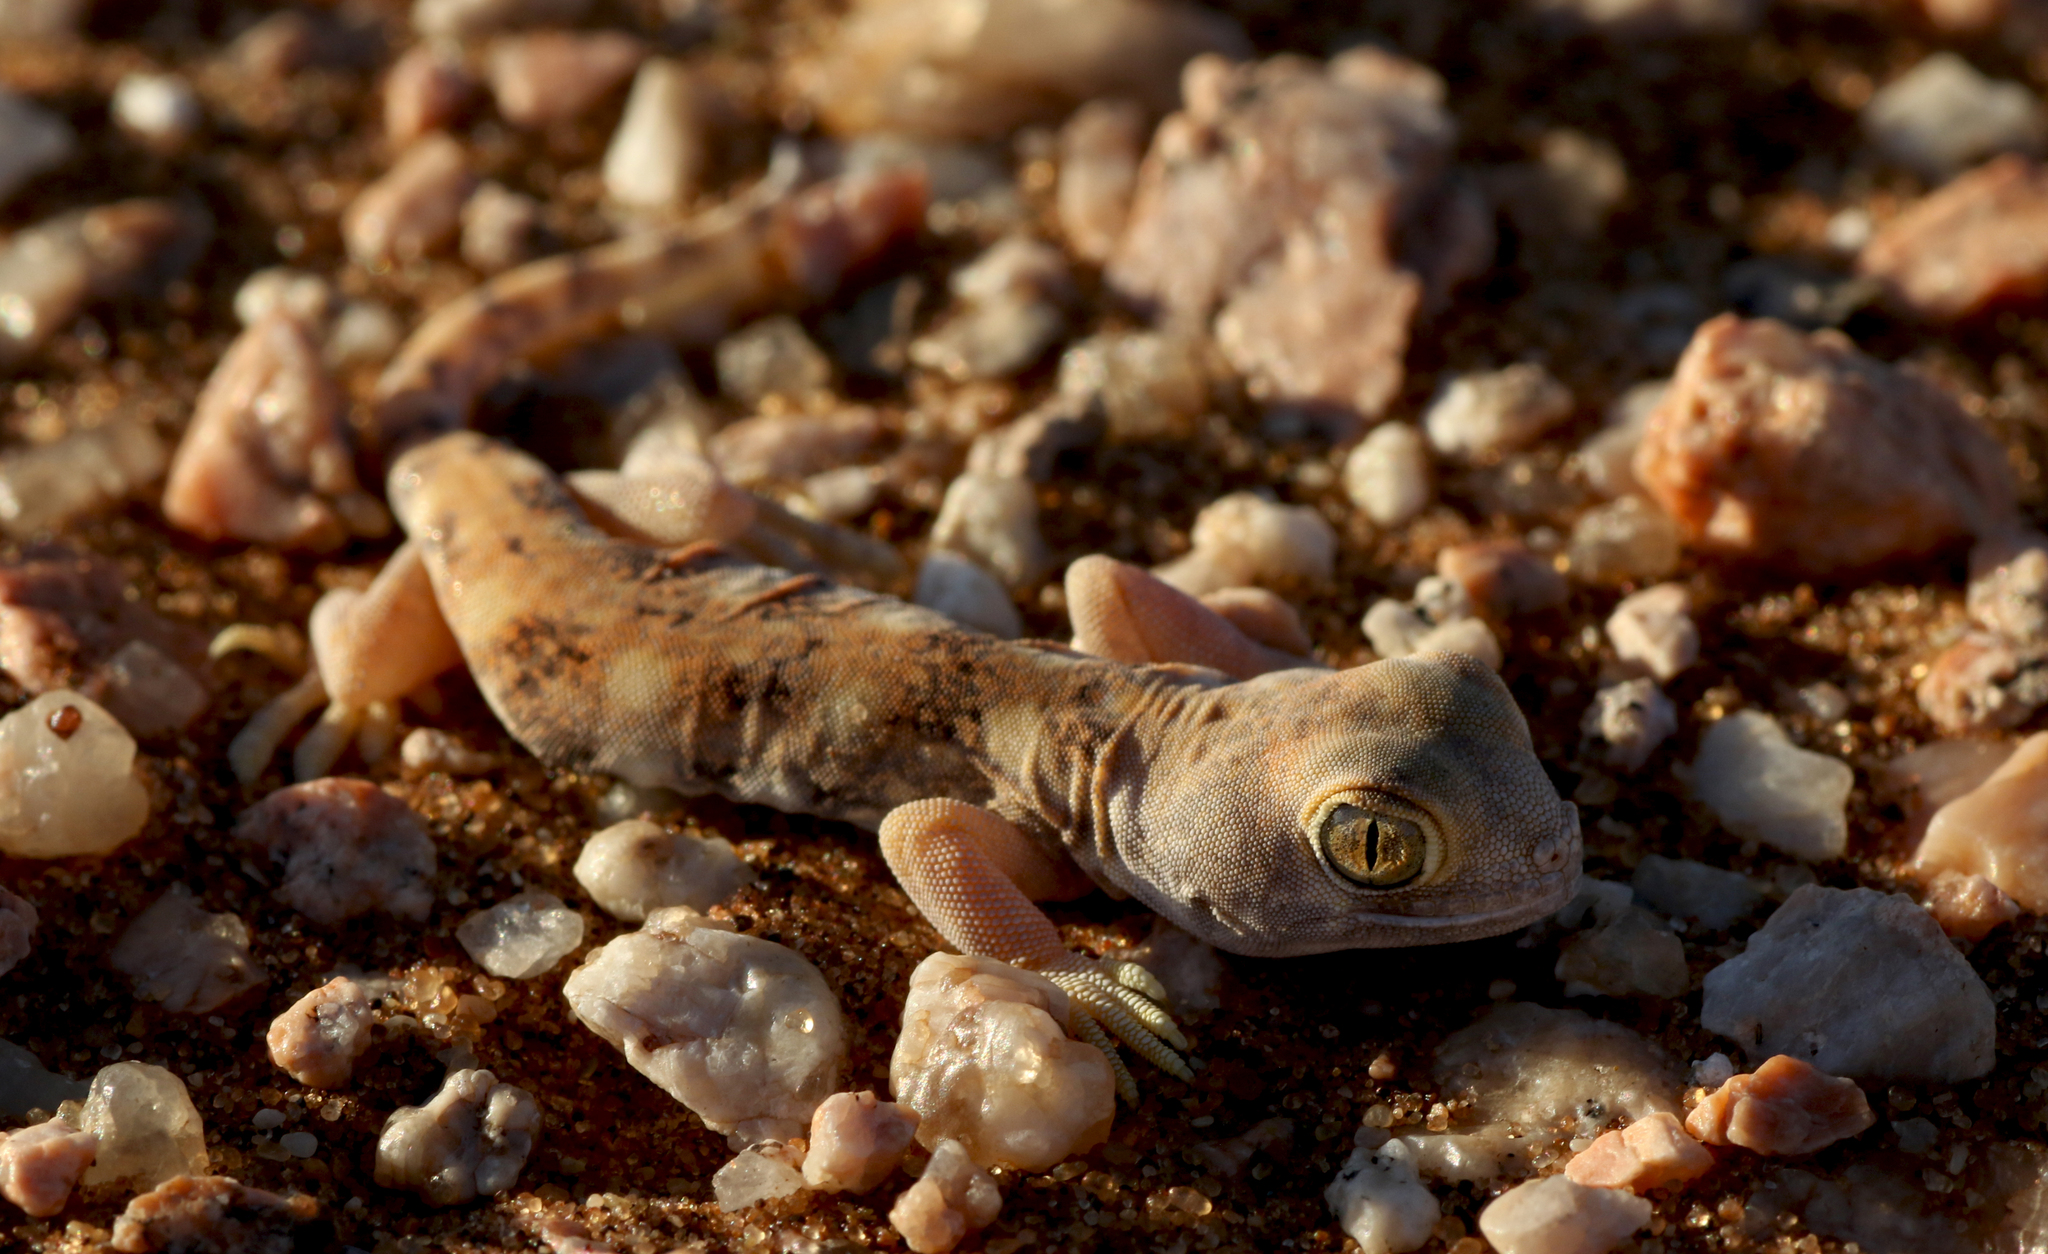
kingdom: Animalia
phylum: Chordata
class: Squamata
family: Gekkonidae
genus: Ptenopus
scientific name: Ptenopus garrulus
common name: Whistling gecko
